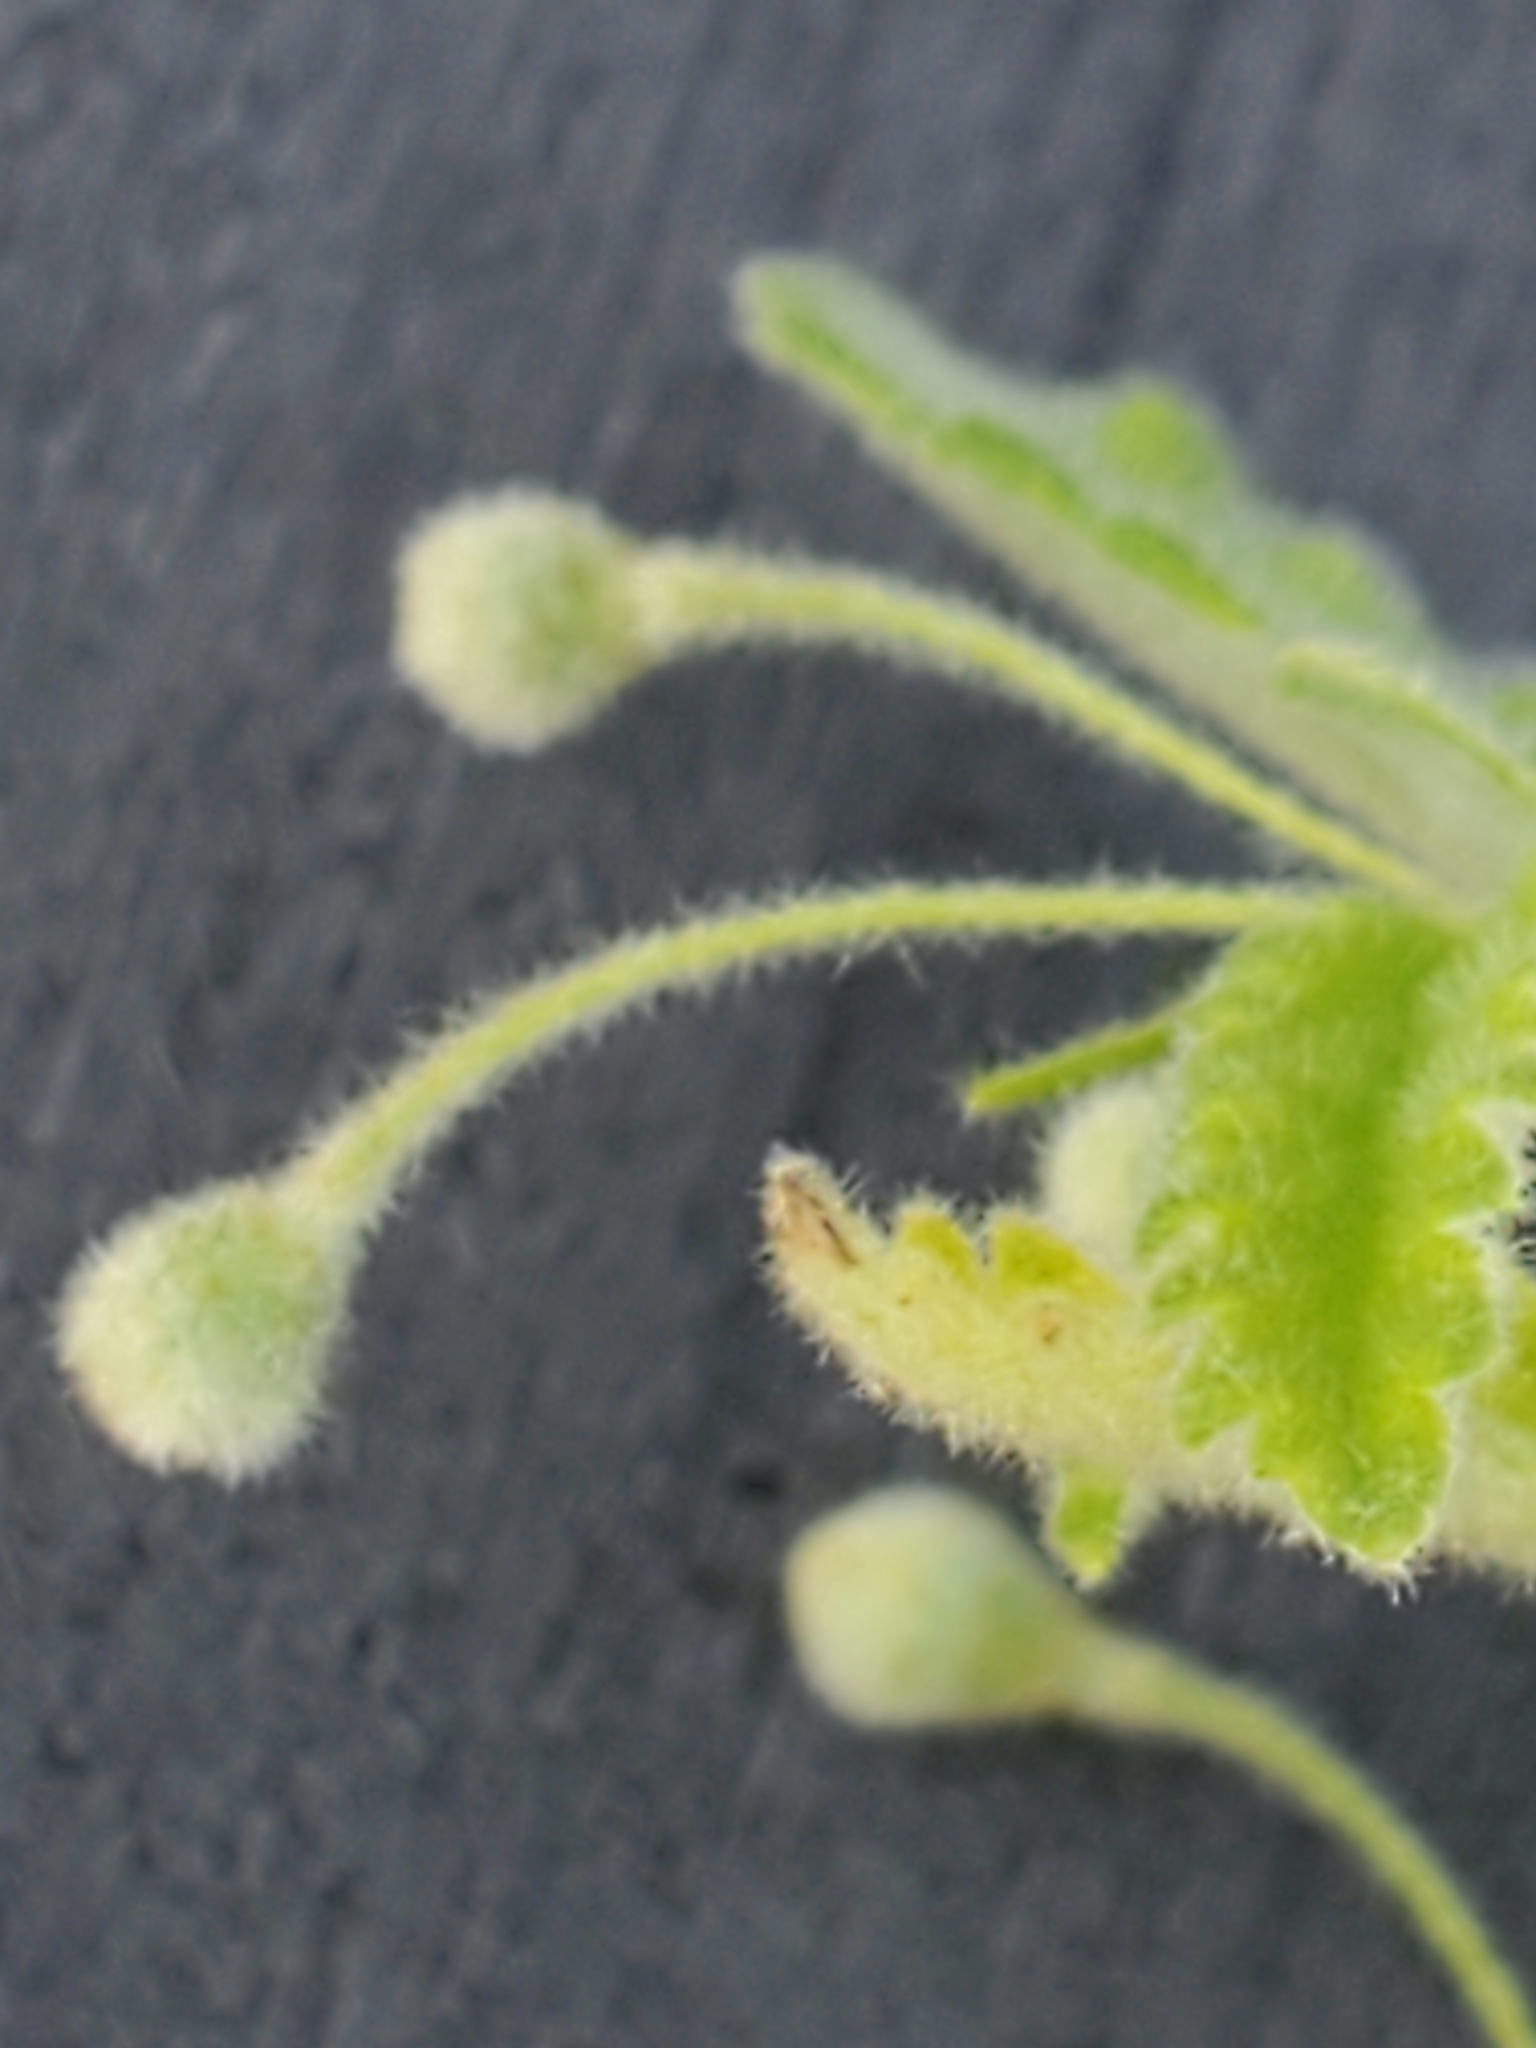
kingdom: Plantae
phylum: Tracheophyta
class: Magnoliopsida
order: Malvales
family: Malvaceae
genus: Meximalva
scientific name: Meximalva filipes
